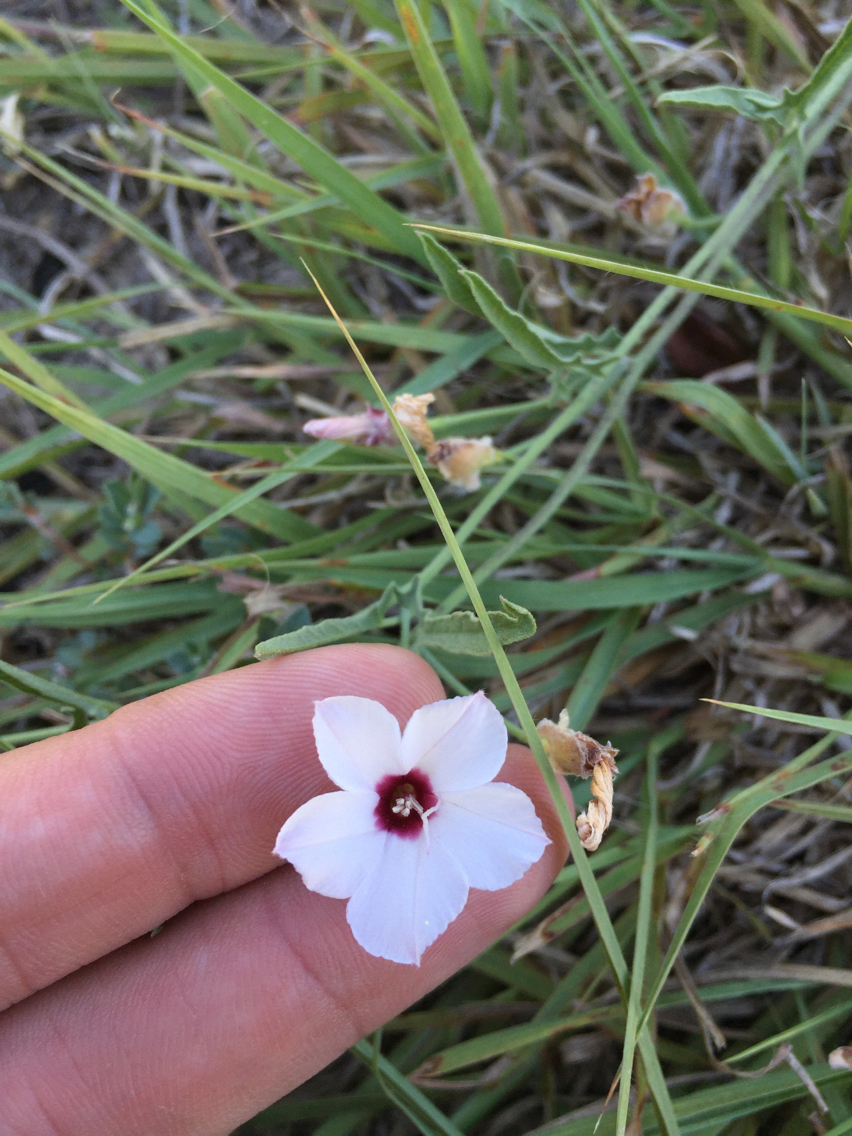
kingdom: Plantae
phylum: Tracheophyta
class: Magnoliopsida
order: Solanales
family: Convolvulaceae
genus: Convolvulus
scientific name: Convolvulus equitans
